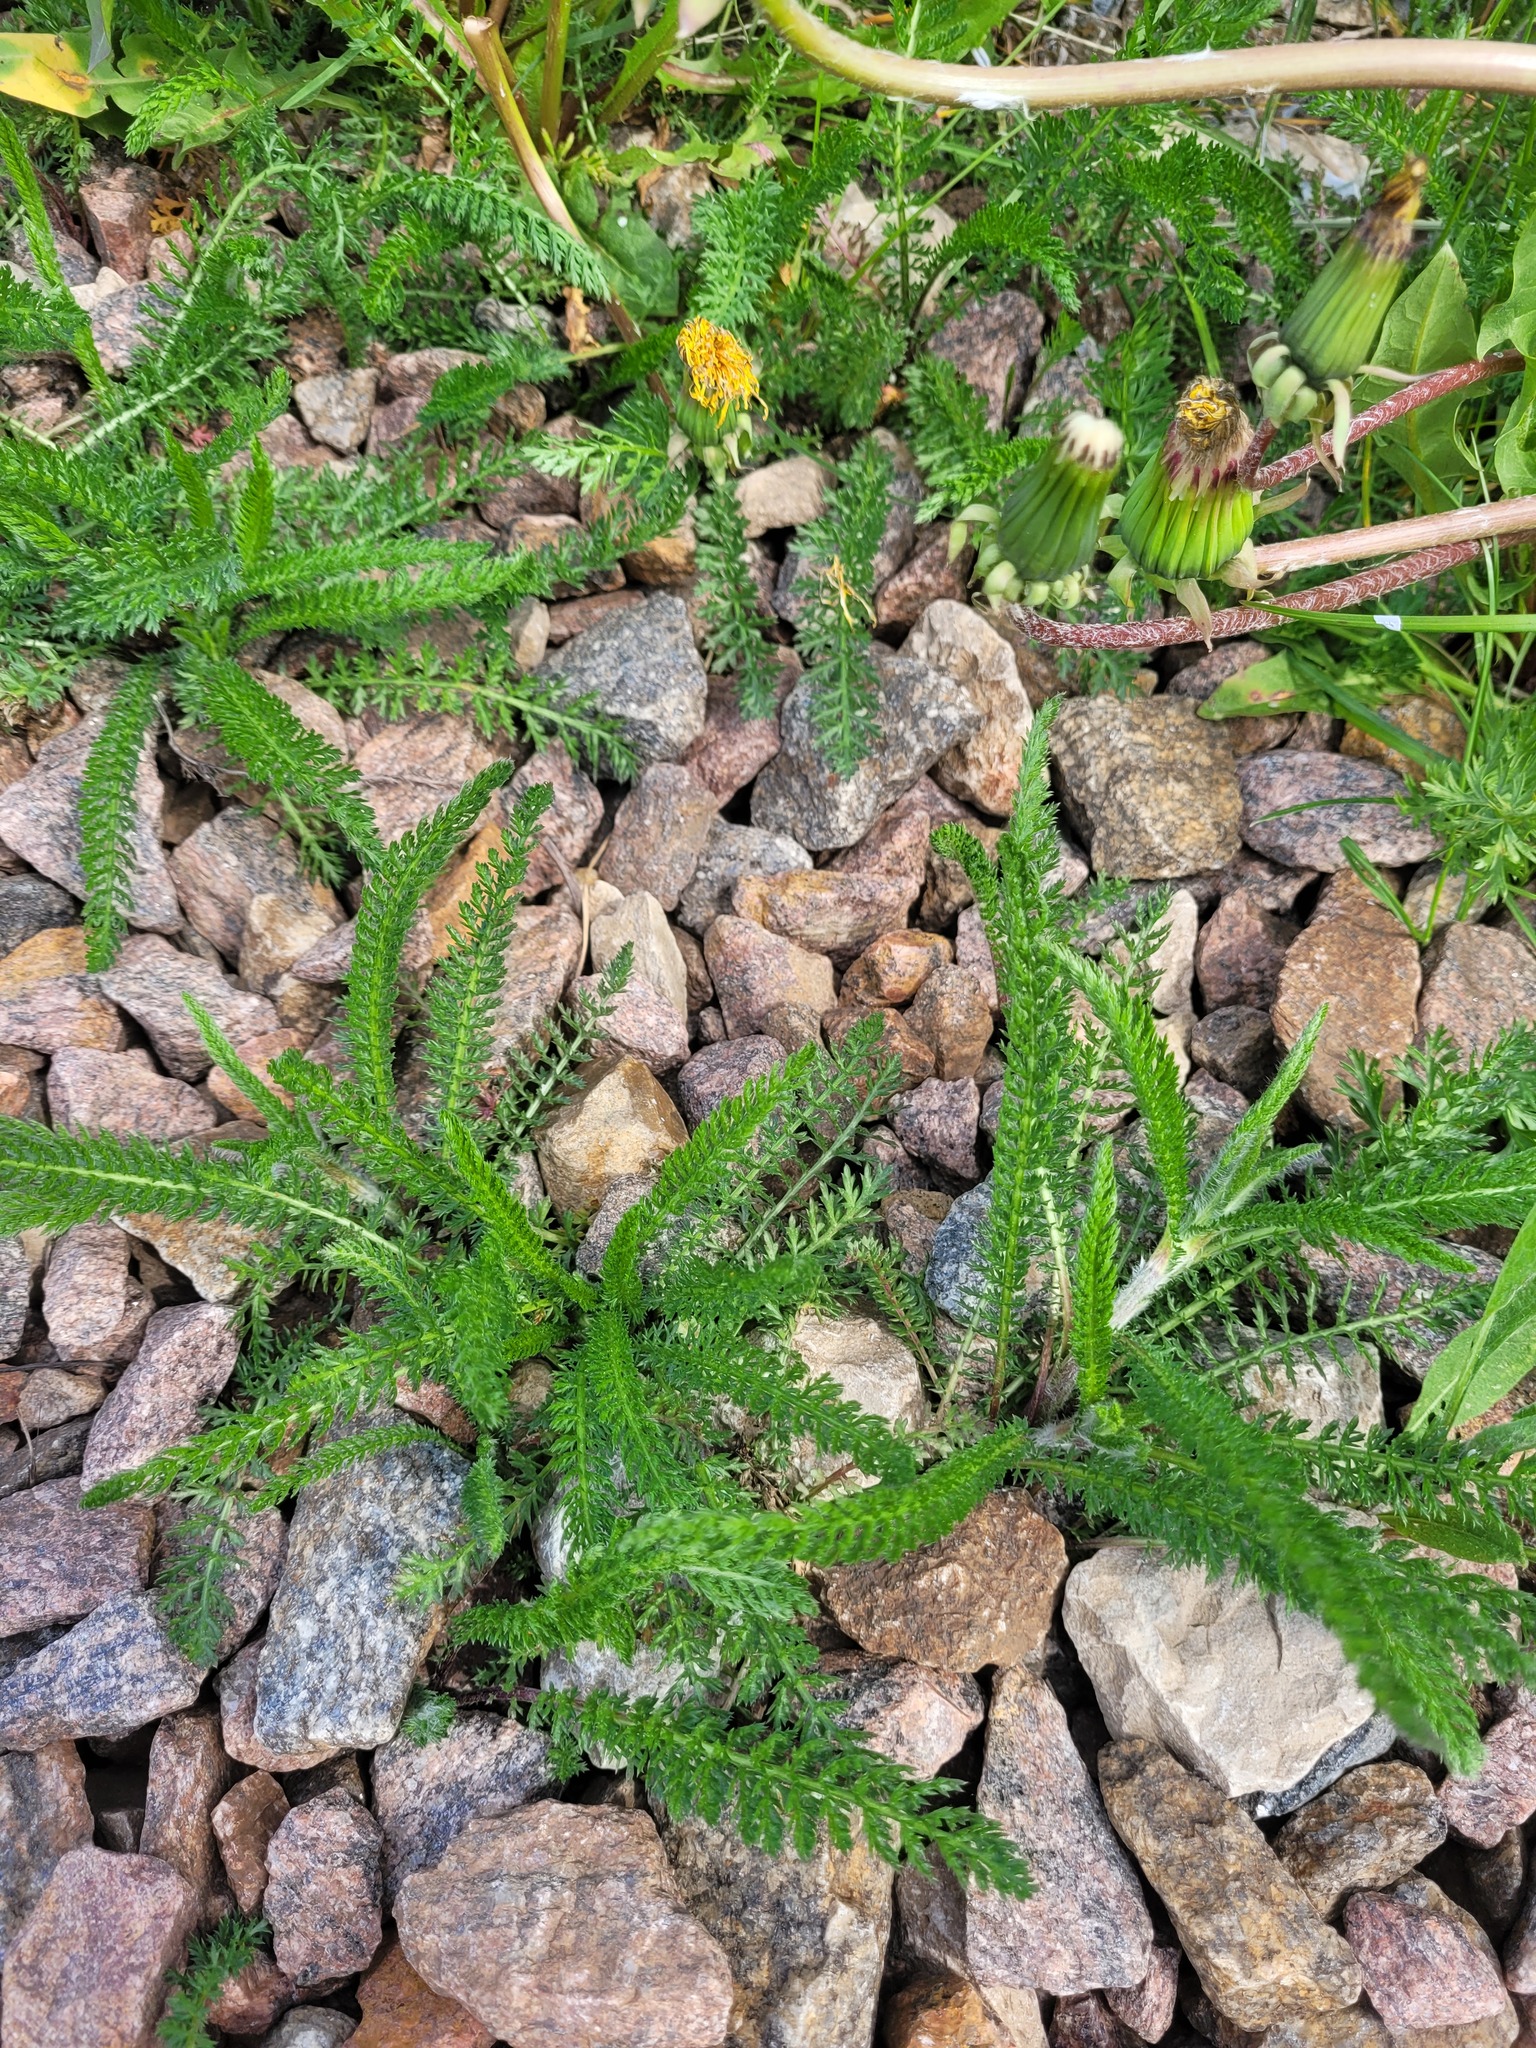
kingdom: Plantae
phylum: Tracheophyta
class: Magnoliopsida
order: Asterales
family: Asteraceae
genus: Achillea
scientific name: Achillea millefolium
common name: Yarrow
